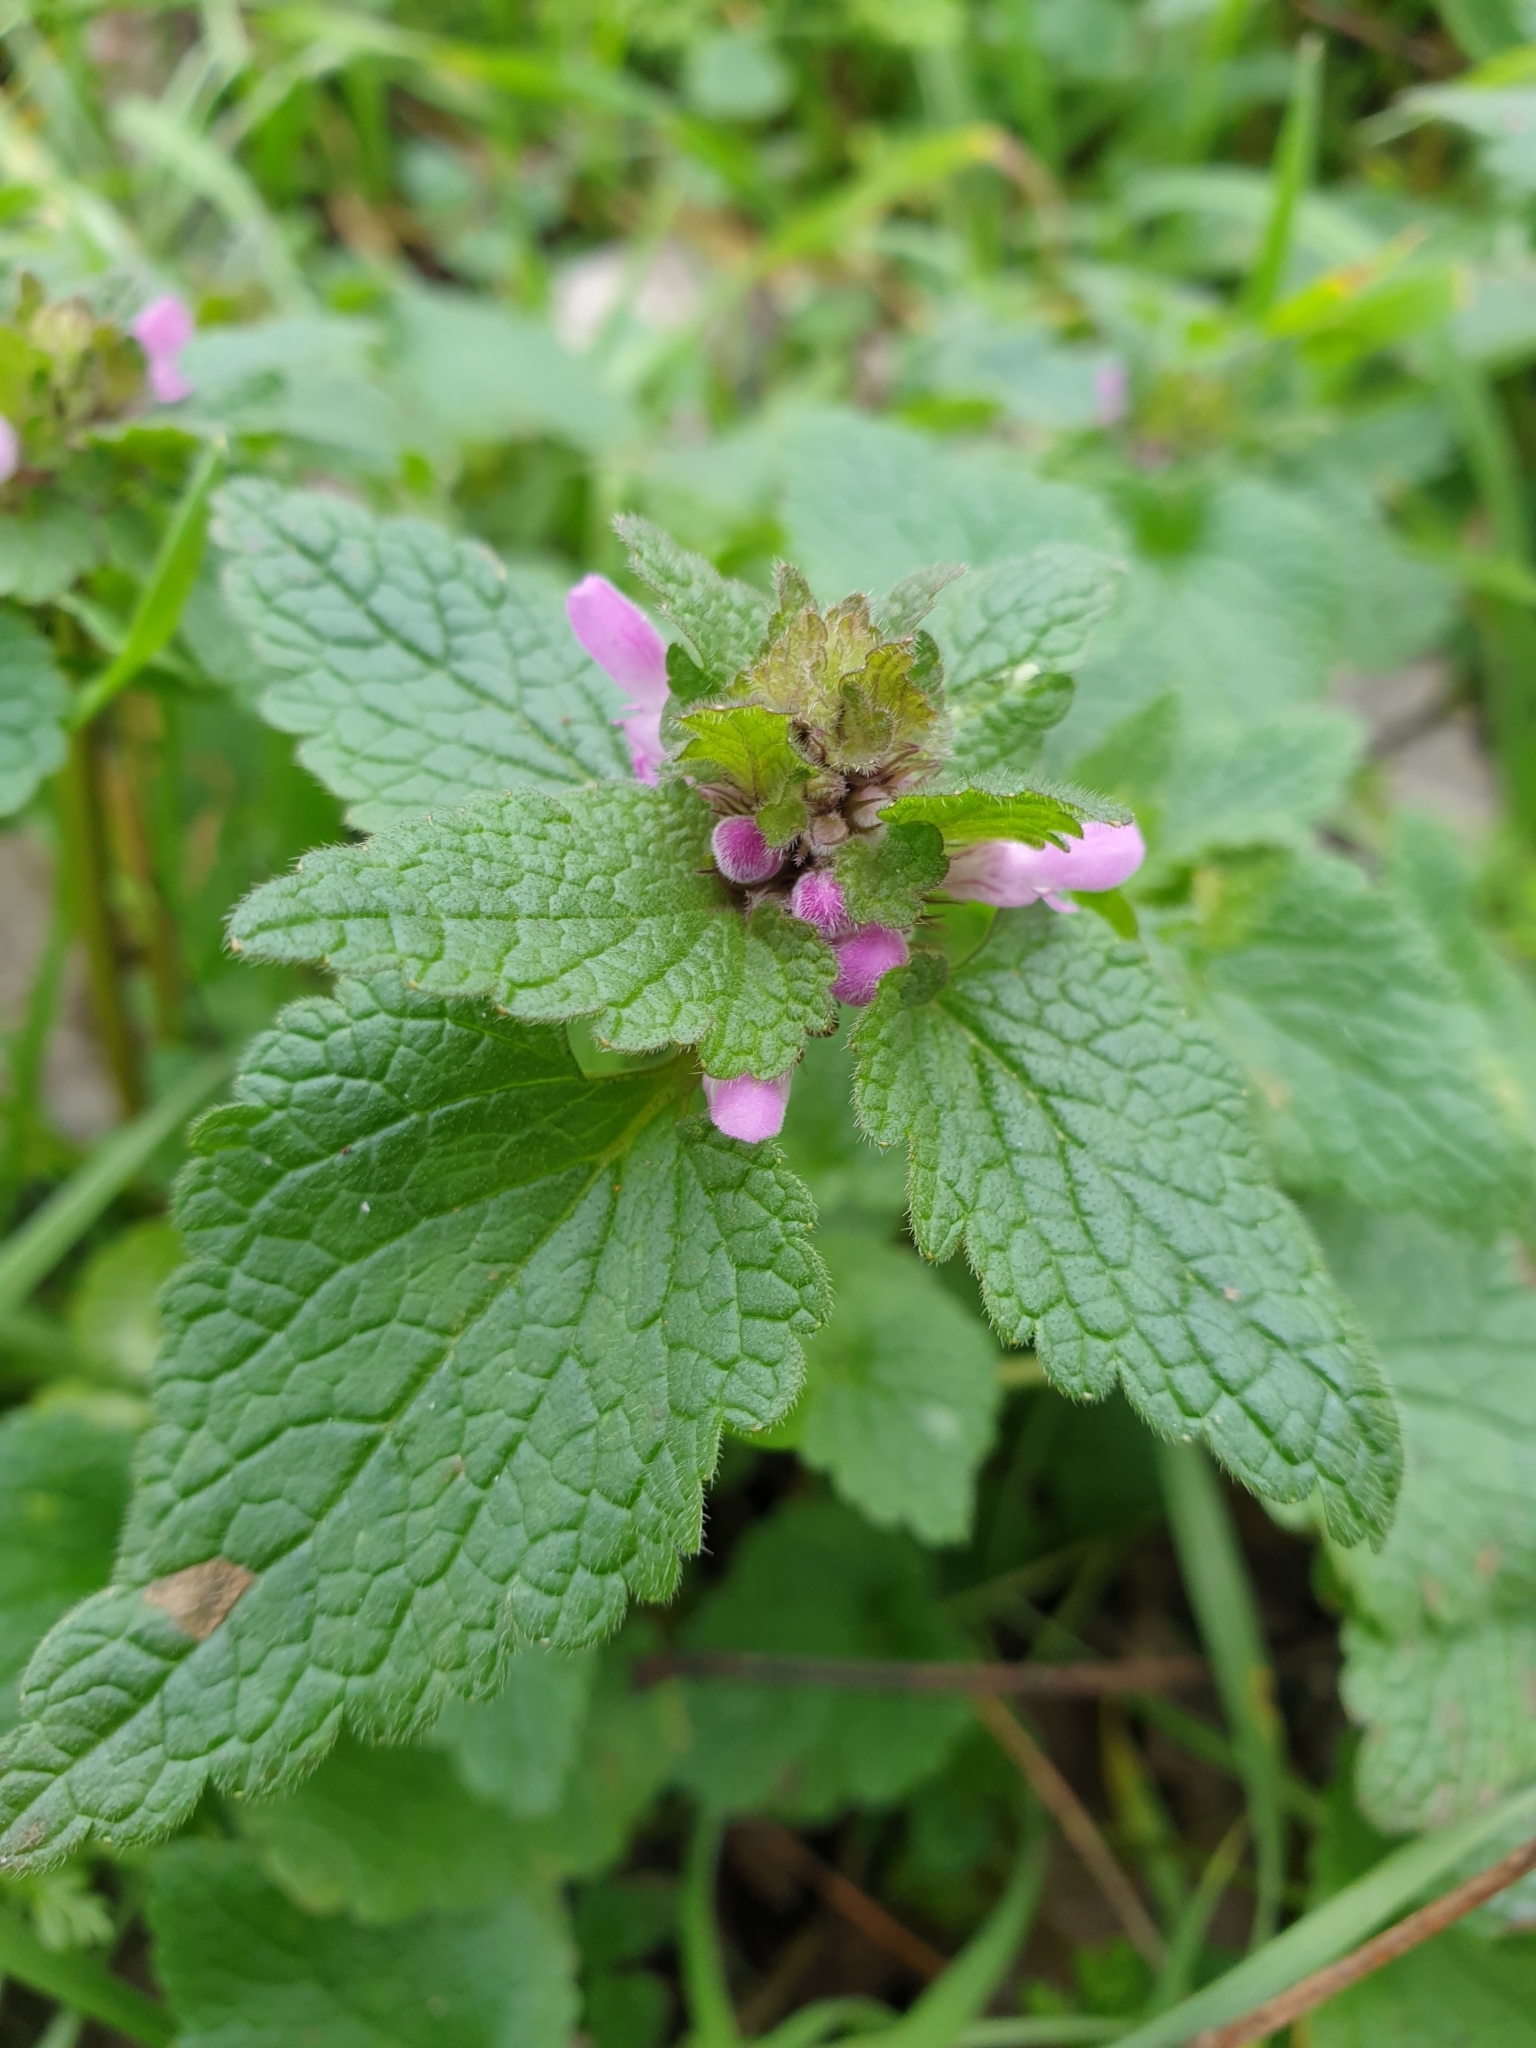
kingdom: Plantae
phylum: Tracheophyta
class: Magnoliopsida
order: Lamiales
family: Lamiaceae
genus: Lamium
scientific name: Lamium purpureum
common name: Red dead-nettle
